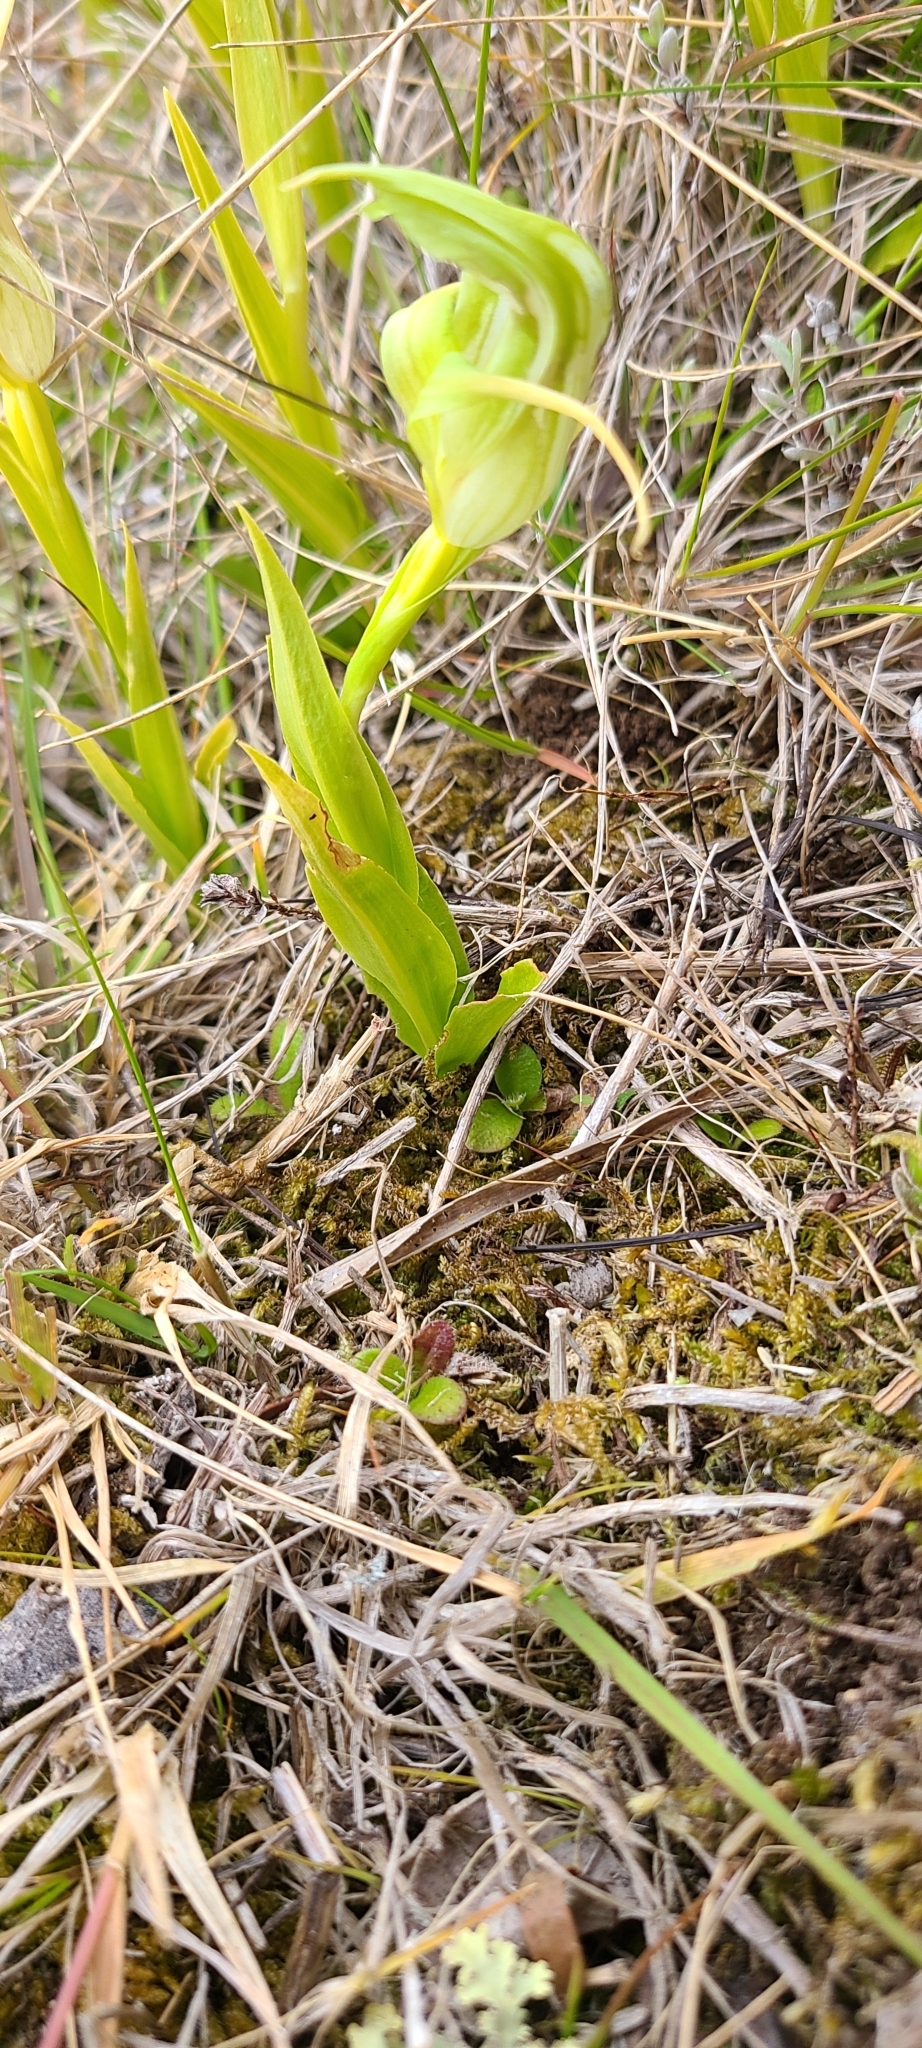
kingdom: Plantae
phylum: Tracheophyta
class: Liliopsida
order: Asparagales
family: Orchidaceae
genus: Pterostylis
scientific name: Pterostylis australis
